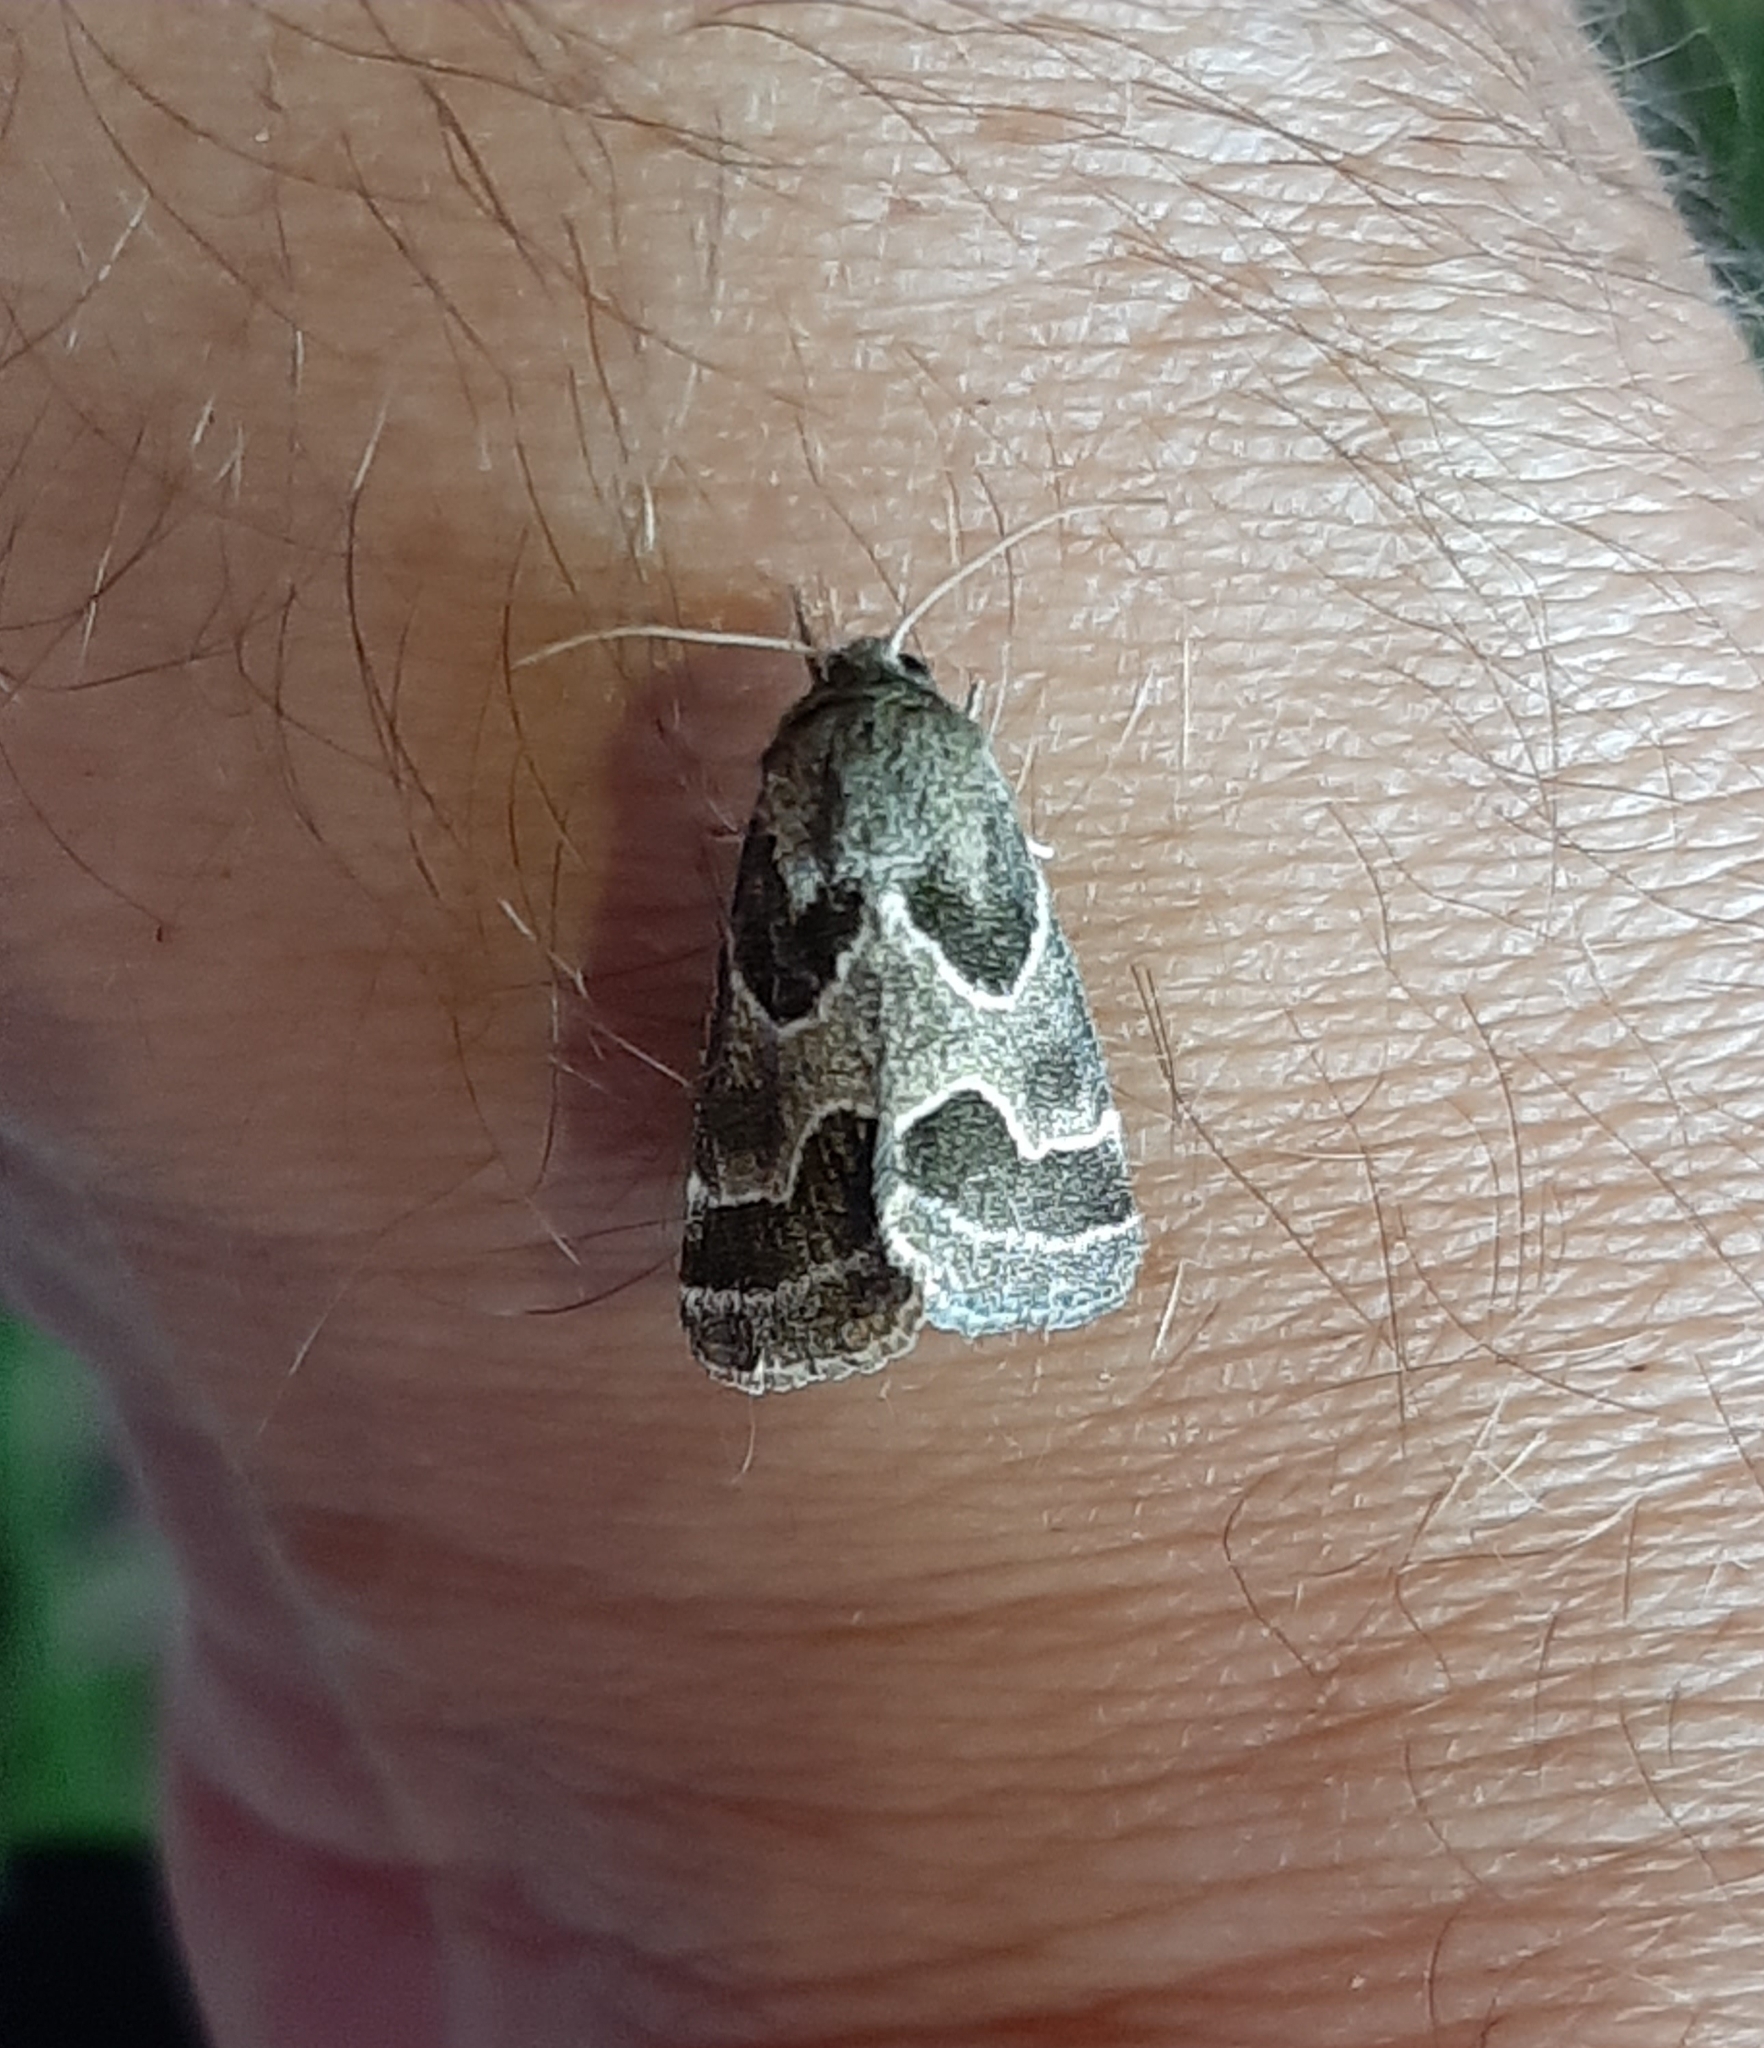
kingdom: Animalia
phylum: Arthropoda
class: Insecta
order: Lepidoptera
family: Noctuidae
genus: Schinia
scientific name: Schinia rivulosa
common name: Scarce meal-moth
